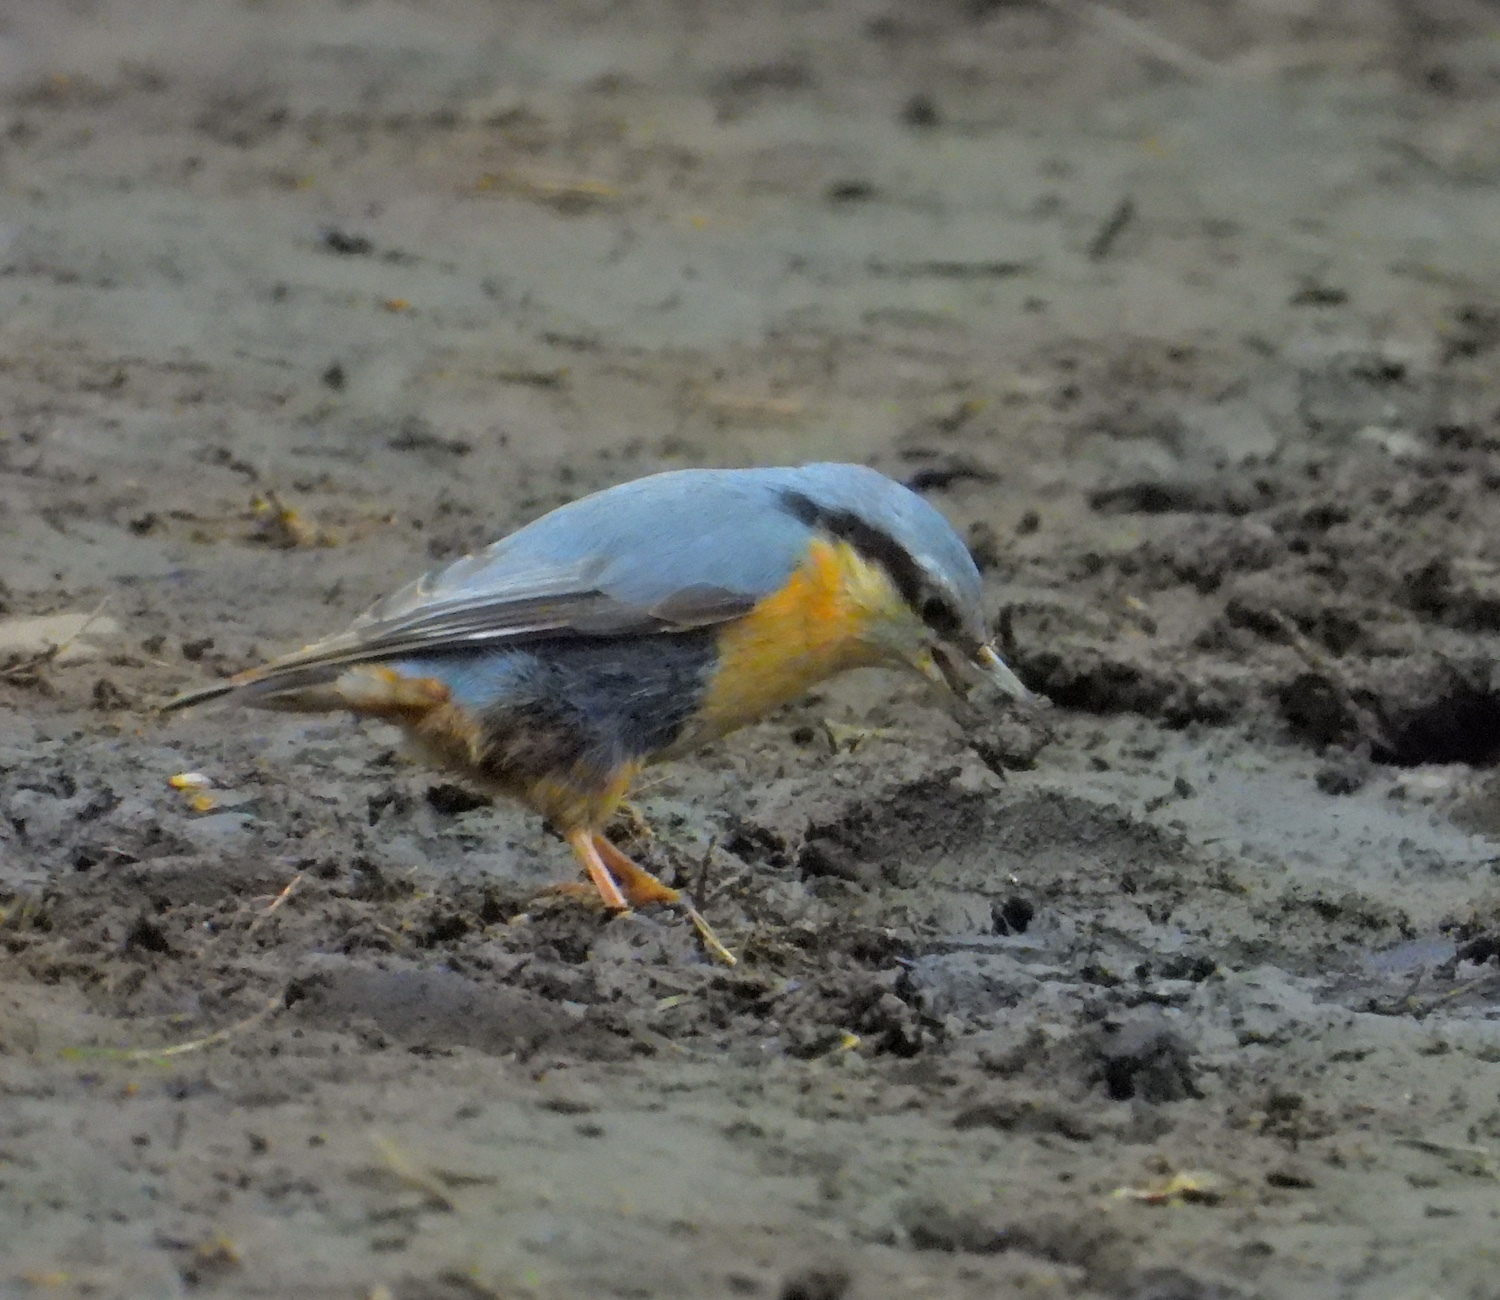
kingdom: Animalia
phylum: Chordata
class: Aves
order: Passeriformes
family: Sittidae
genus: Sitta
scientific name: Sitta europaea
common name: Eurasian nuthatch
